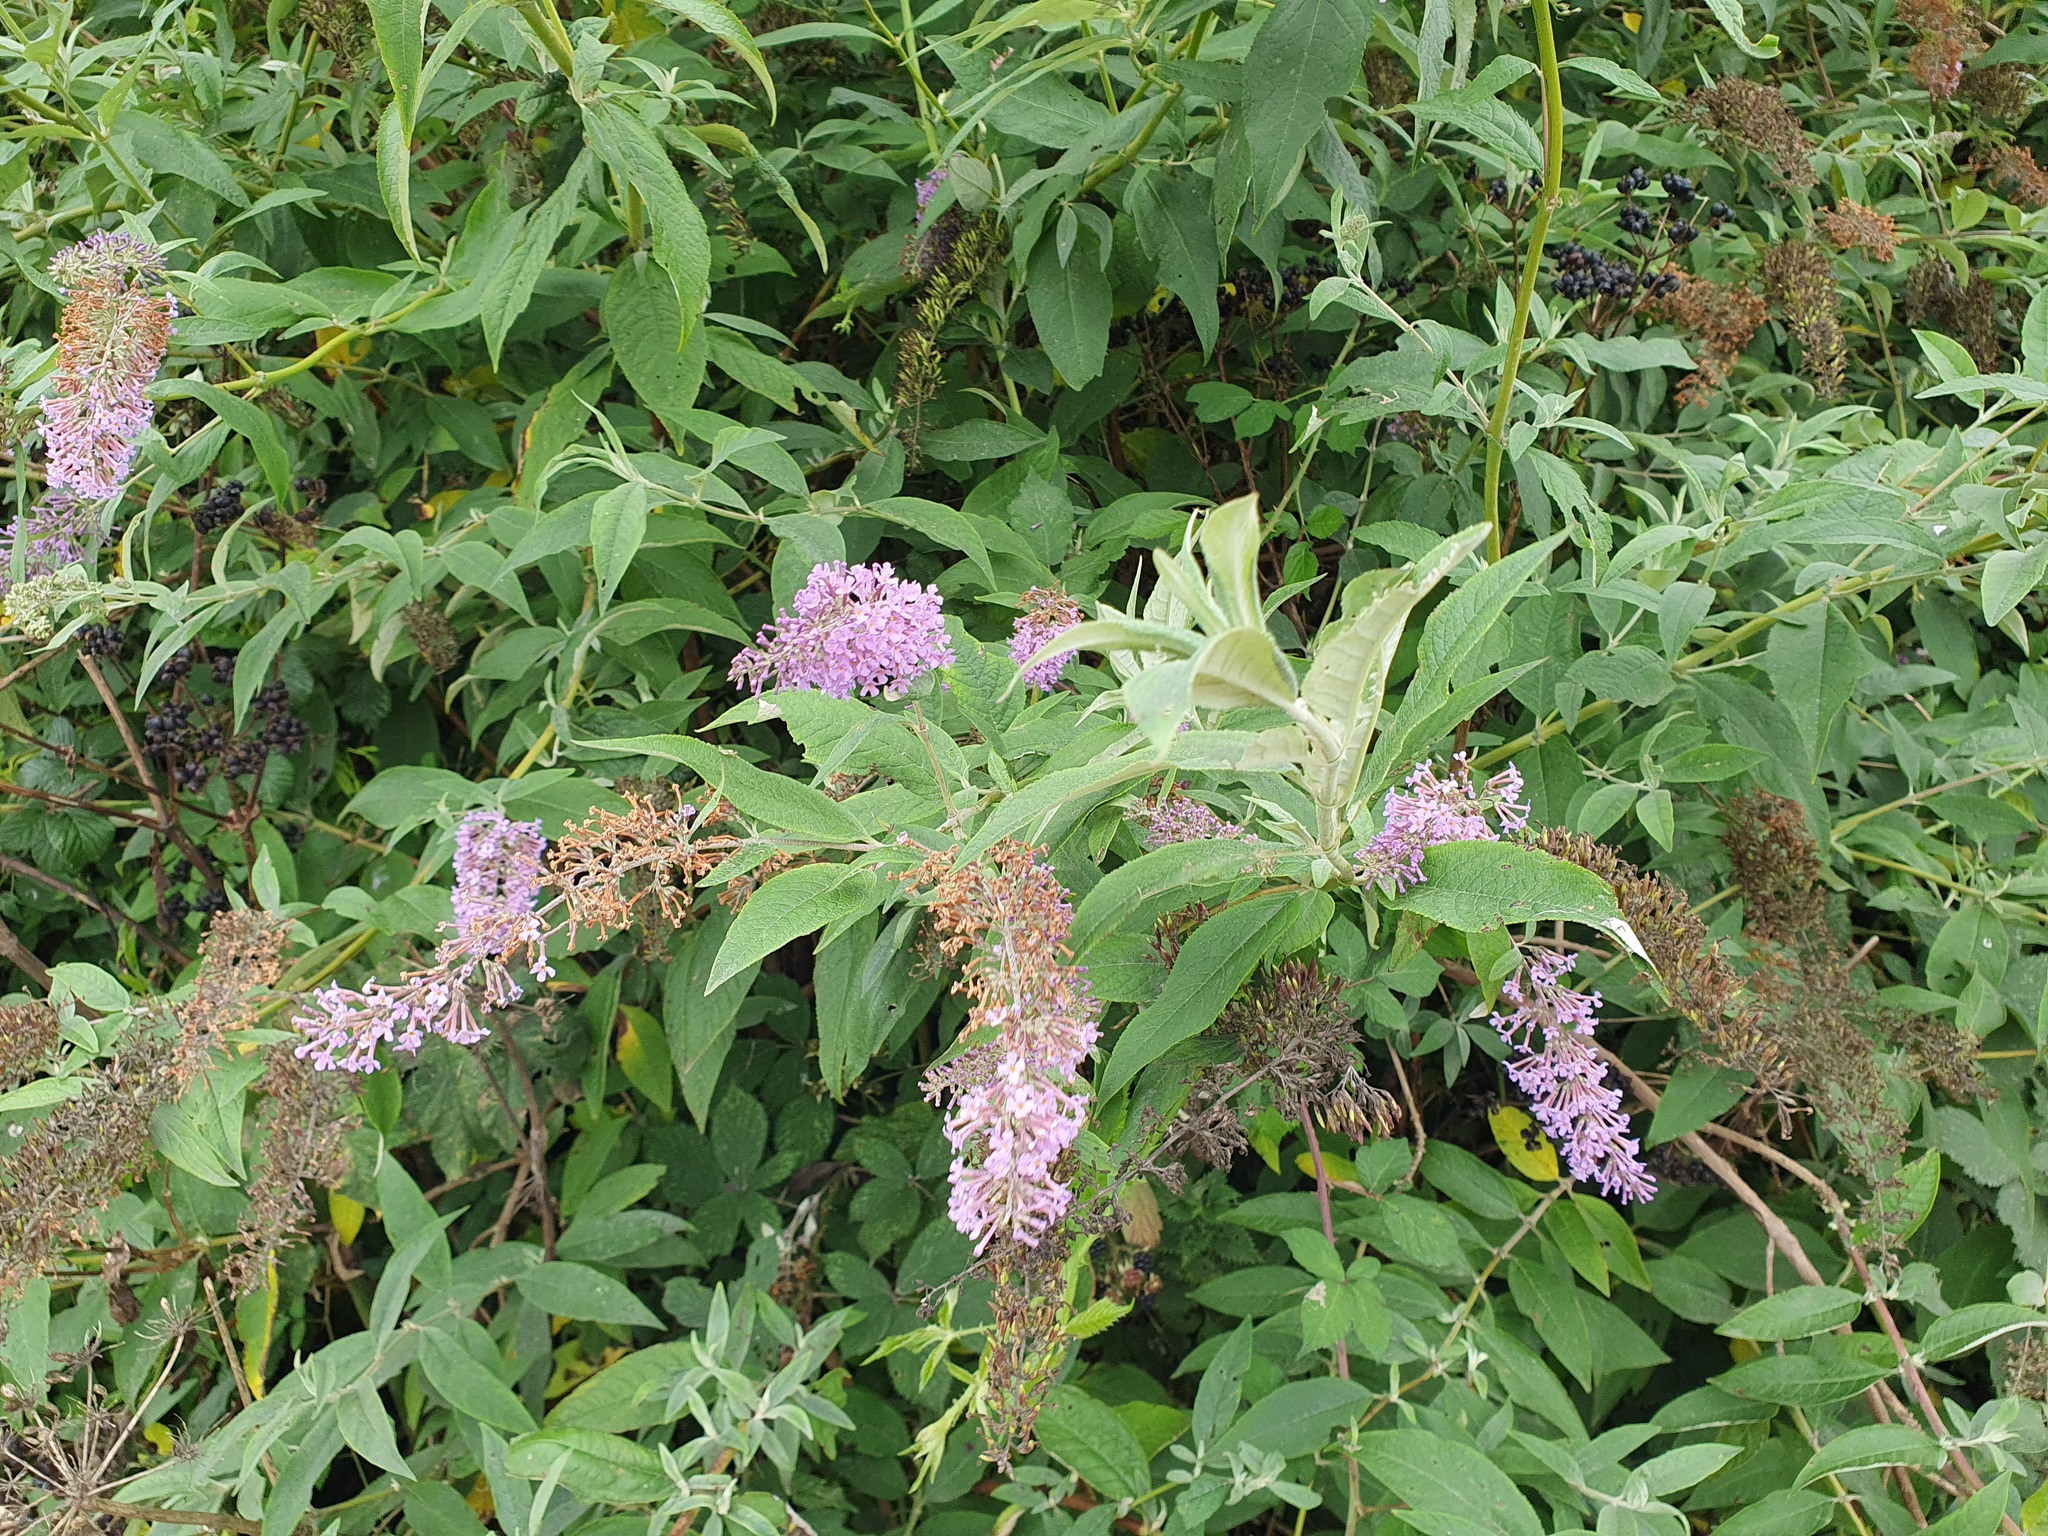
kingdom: Plantae
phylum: Tracheophyta
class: Magnoliopsida
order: Lamiales
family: Scrophulariaceae
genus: Buddleja
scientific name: Buddleja davidii
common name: Butterfly-bush
